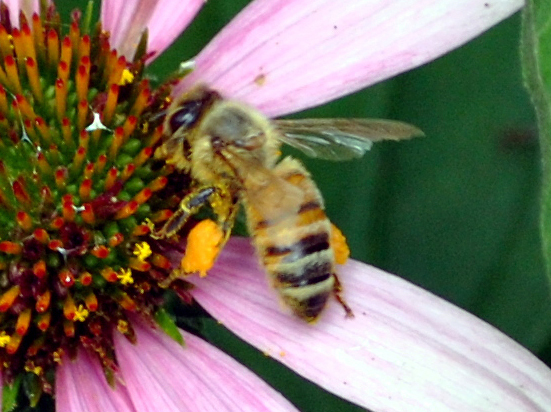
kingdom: Animalia
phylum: Arthropoda
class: Insecta
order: Hymenoptera
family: Apidae
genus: Apis
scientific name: Apis mellifera
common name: Honey bee
